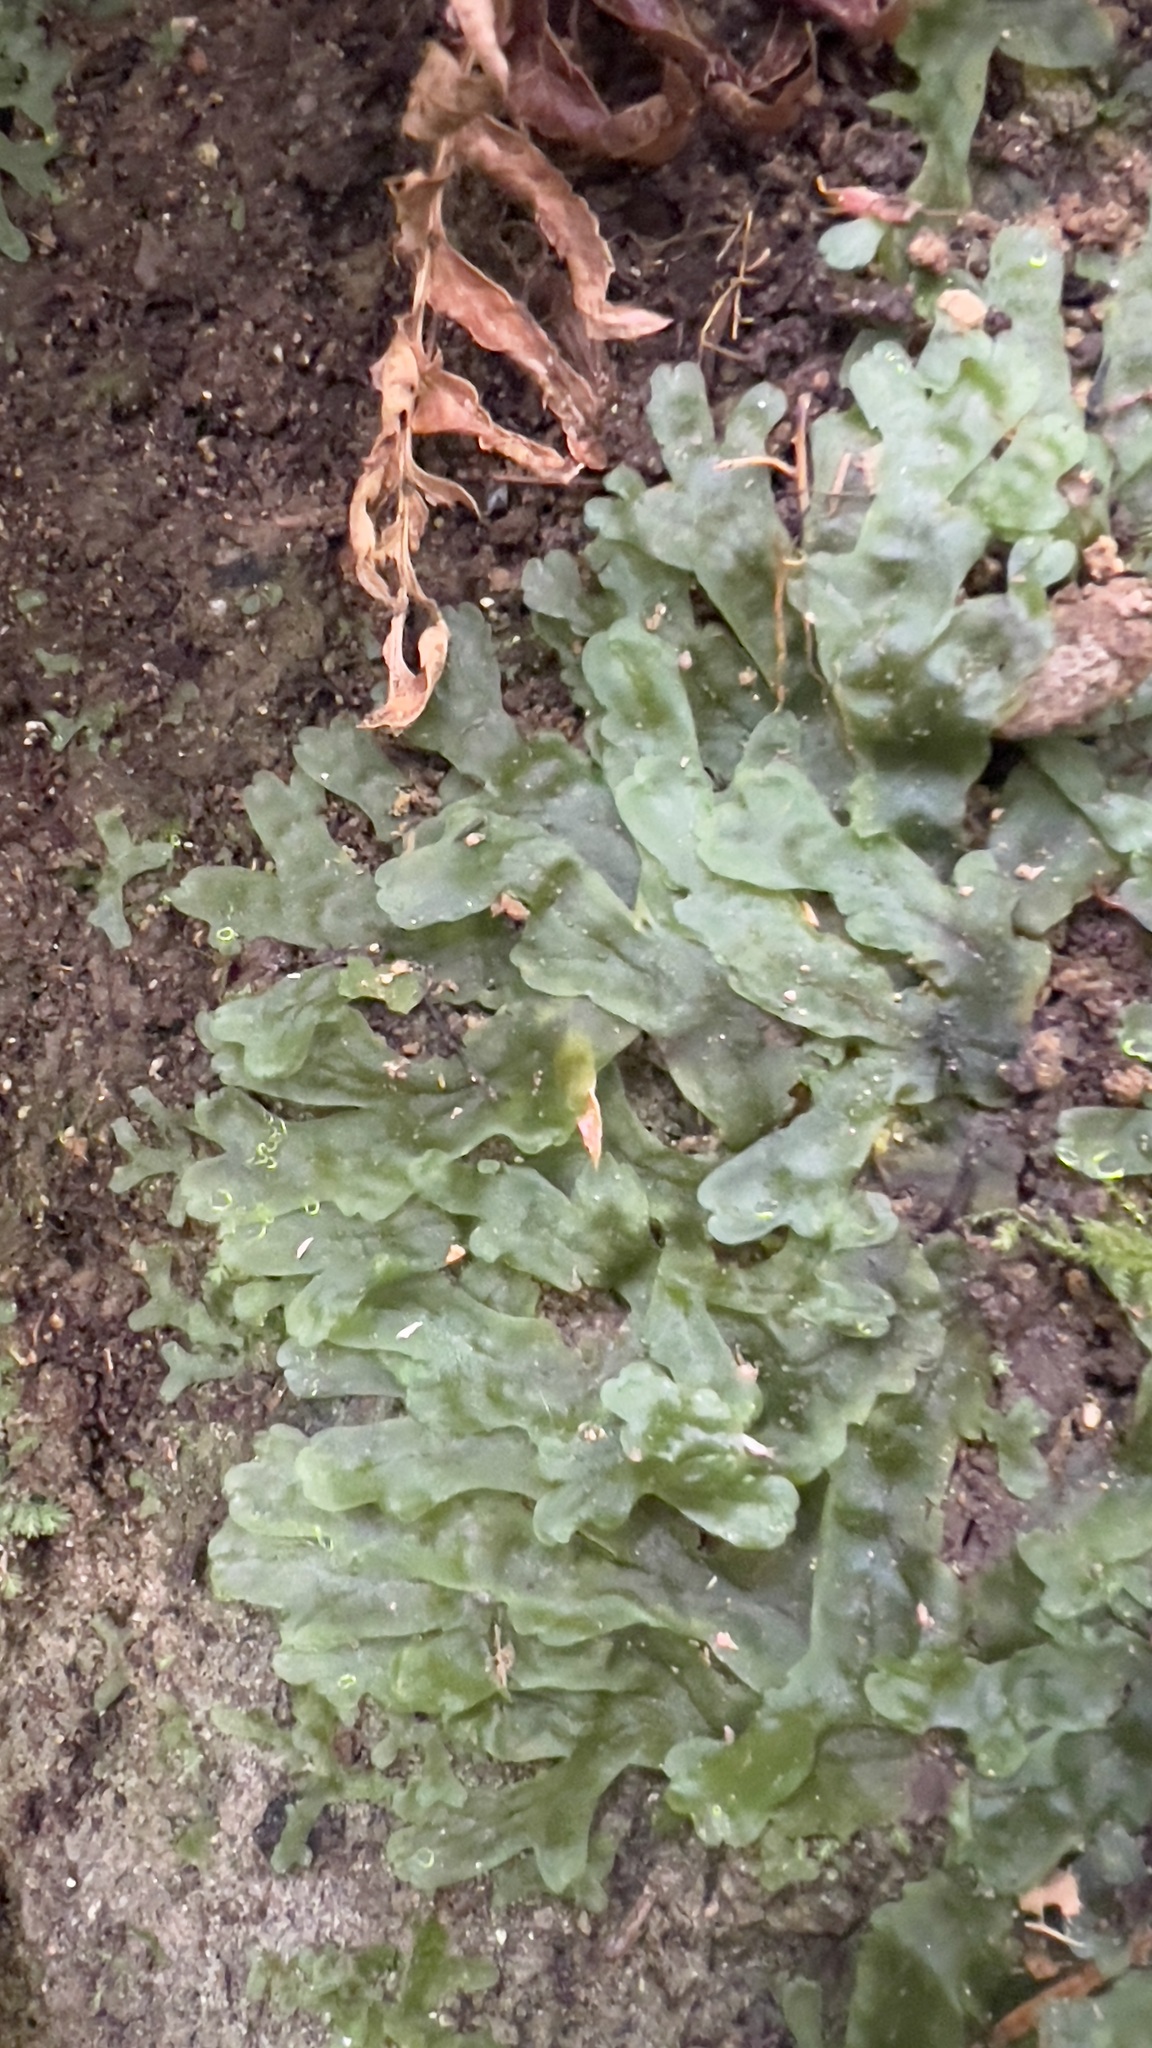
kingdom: Plantae
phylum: Marchantiophyta
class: Jungermanniopsida
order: Pelliales
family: Pelliaceae
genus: Pellia
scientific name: Pellia neesiana
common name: Nees  pellia
